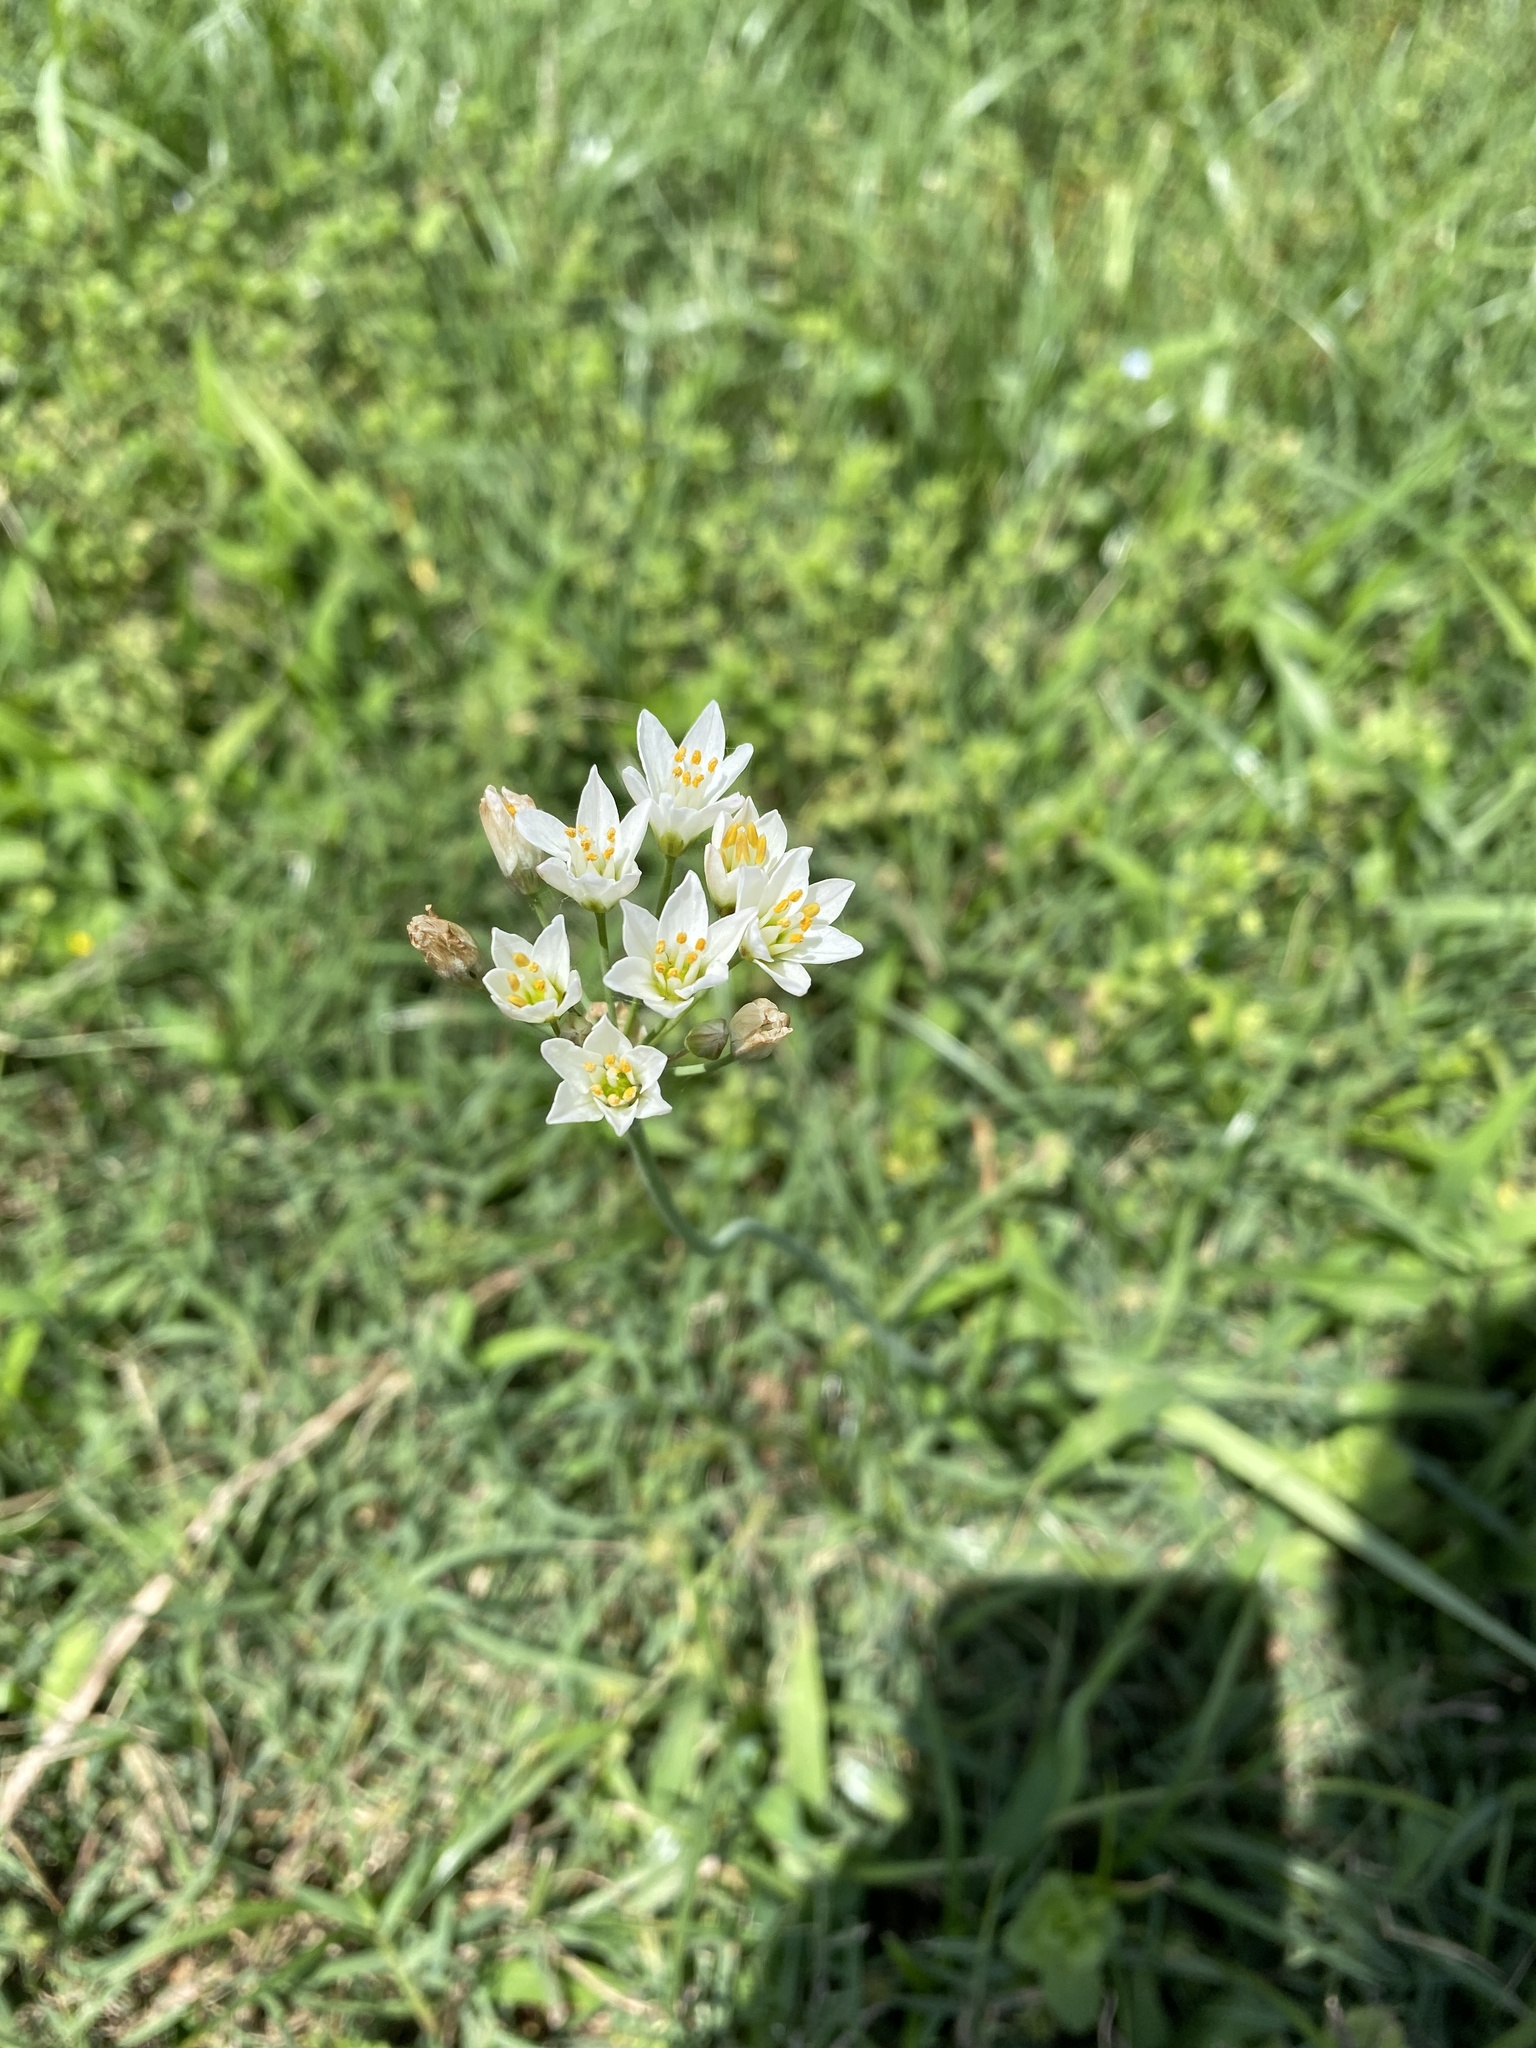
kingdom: Plantae
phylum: Tracheophyta
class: Liliopsida
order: Asparagales
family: Amaryllidaceae
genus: Nothoscordum
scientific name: Nothoscordum gracile
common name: Slender false garlic
